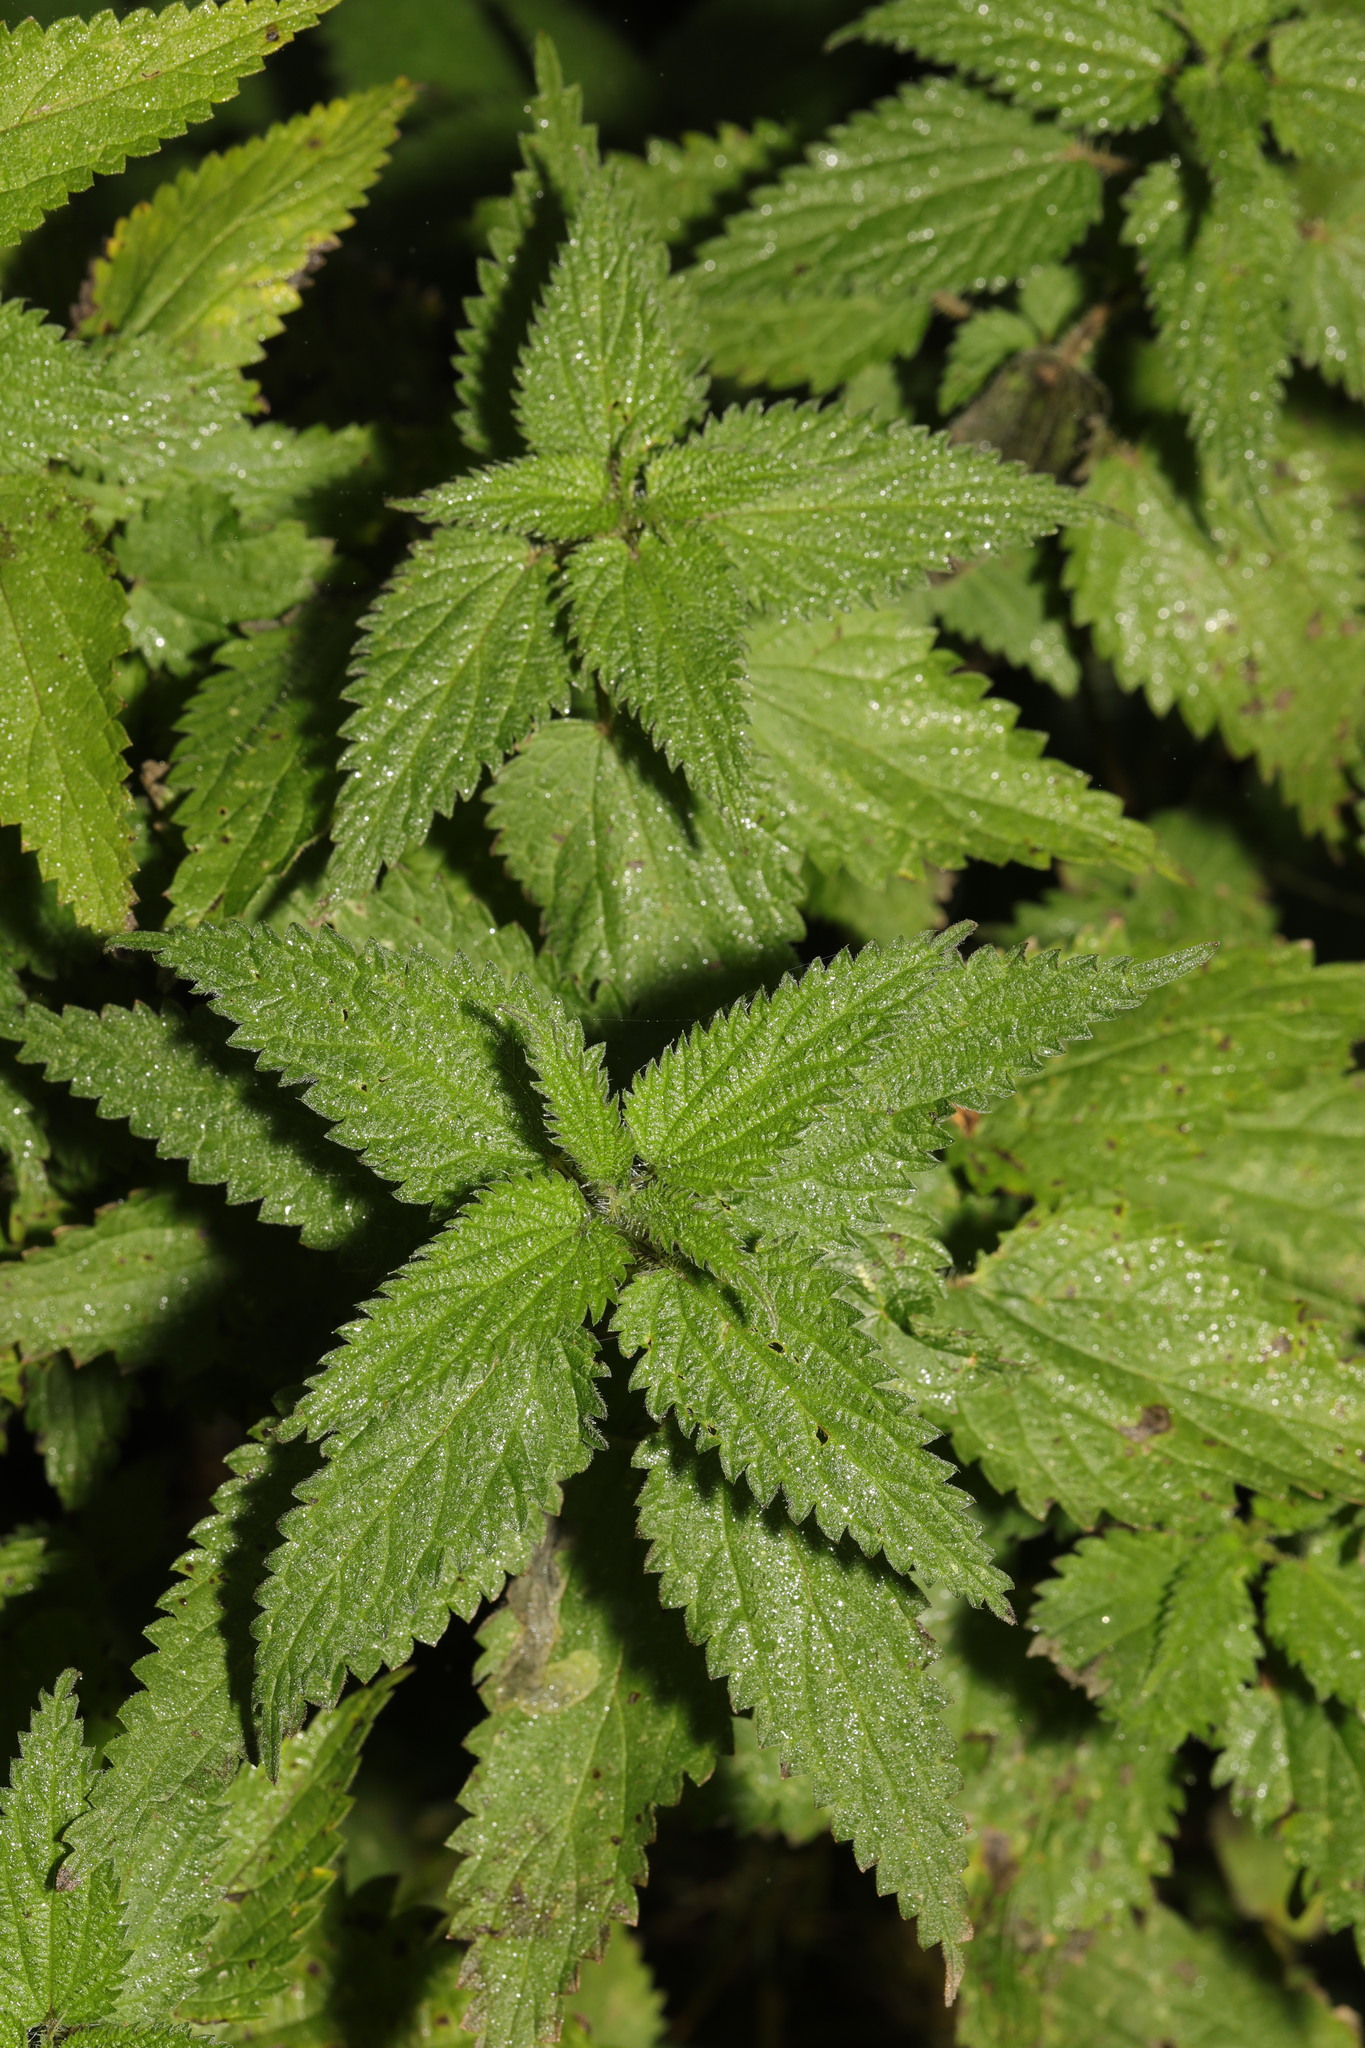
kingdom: Plantae
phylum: Tracheophyta
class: Magnoliopsida
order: Rosales
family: Urticaceae
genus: Urtica
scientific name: Urtica dioica
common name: Common nettle
